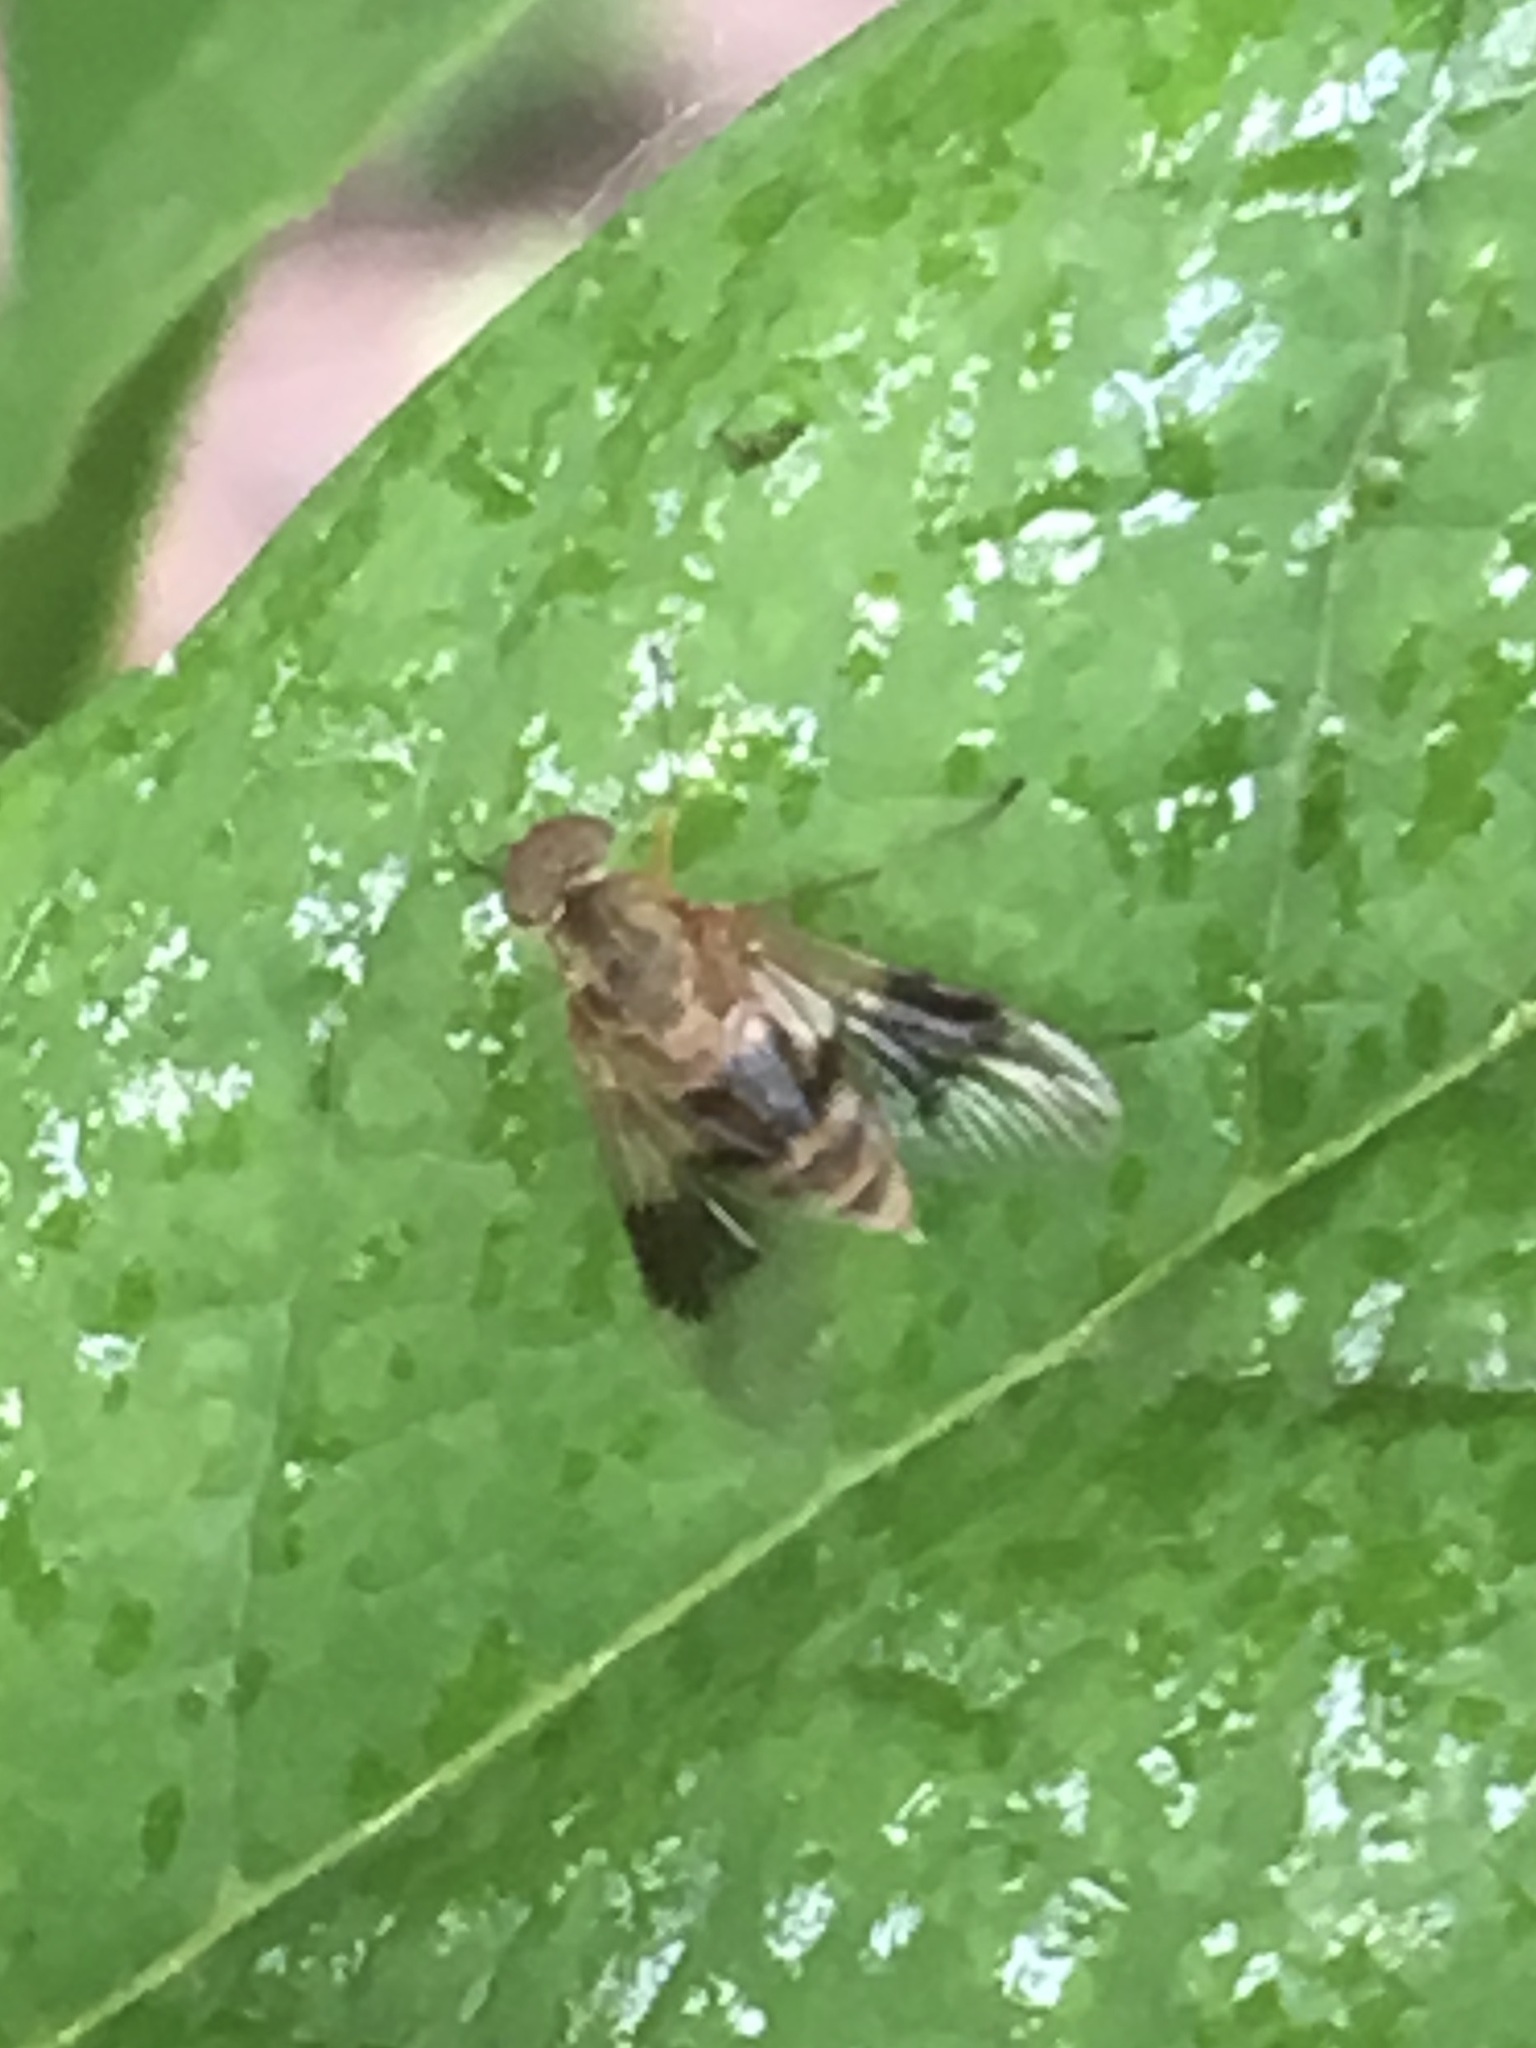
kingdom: Animalia
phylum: Arthropoda
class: Insecta
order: Diptera
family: Rhagionidae
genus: Chrysopilus
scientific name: Chrysopilus quadratus
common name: Quadrate snipe fly
